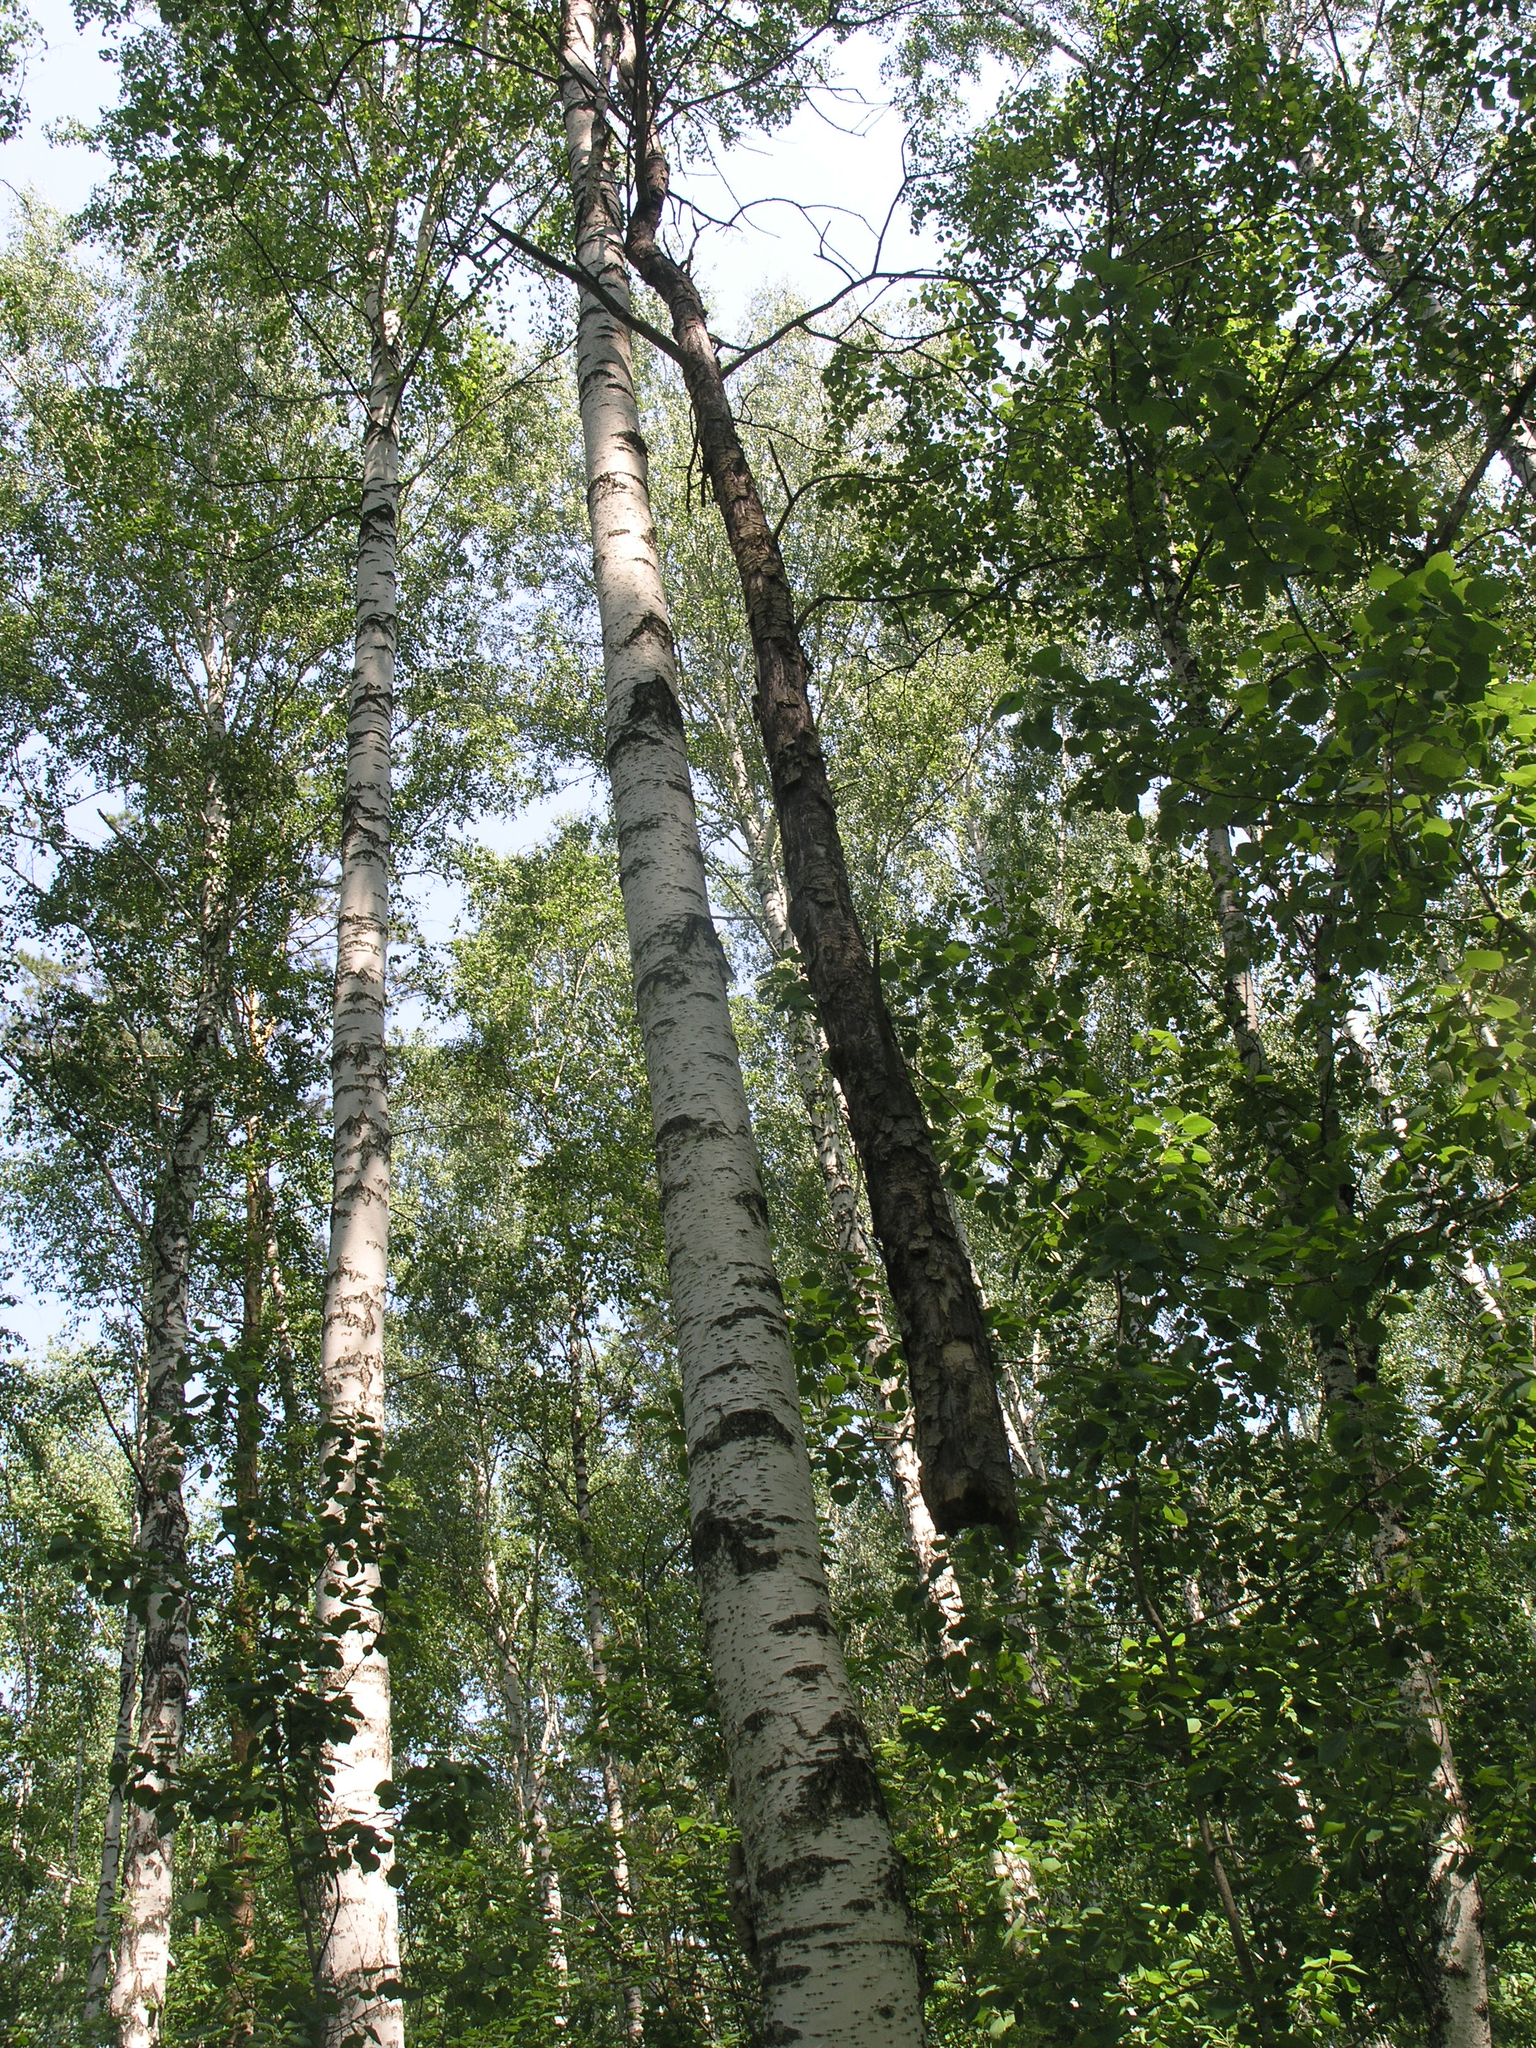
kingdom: Plantae
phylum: Tracheophyta
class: Magnoliopsida
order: Fagales
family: Betulaceae
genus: Betula
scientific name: Betula pendula
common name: Silver birch
